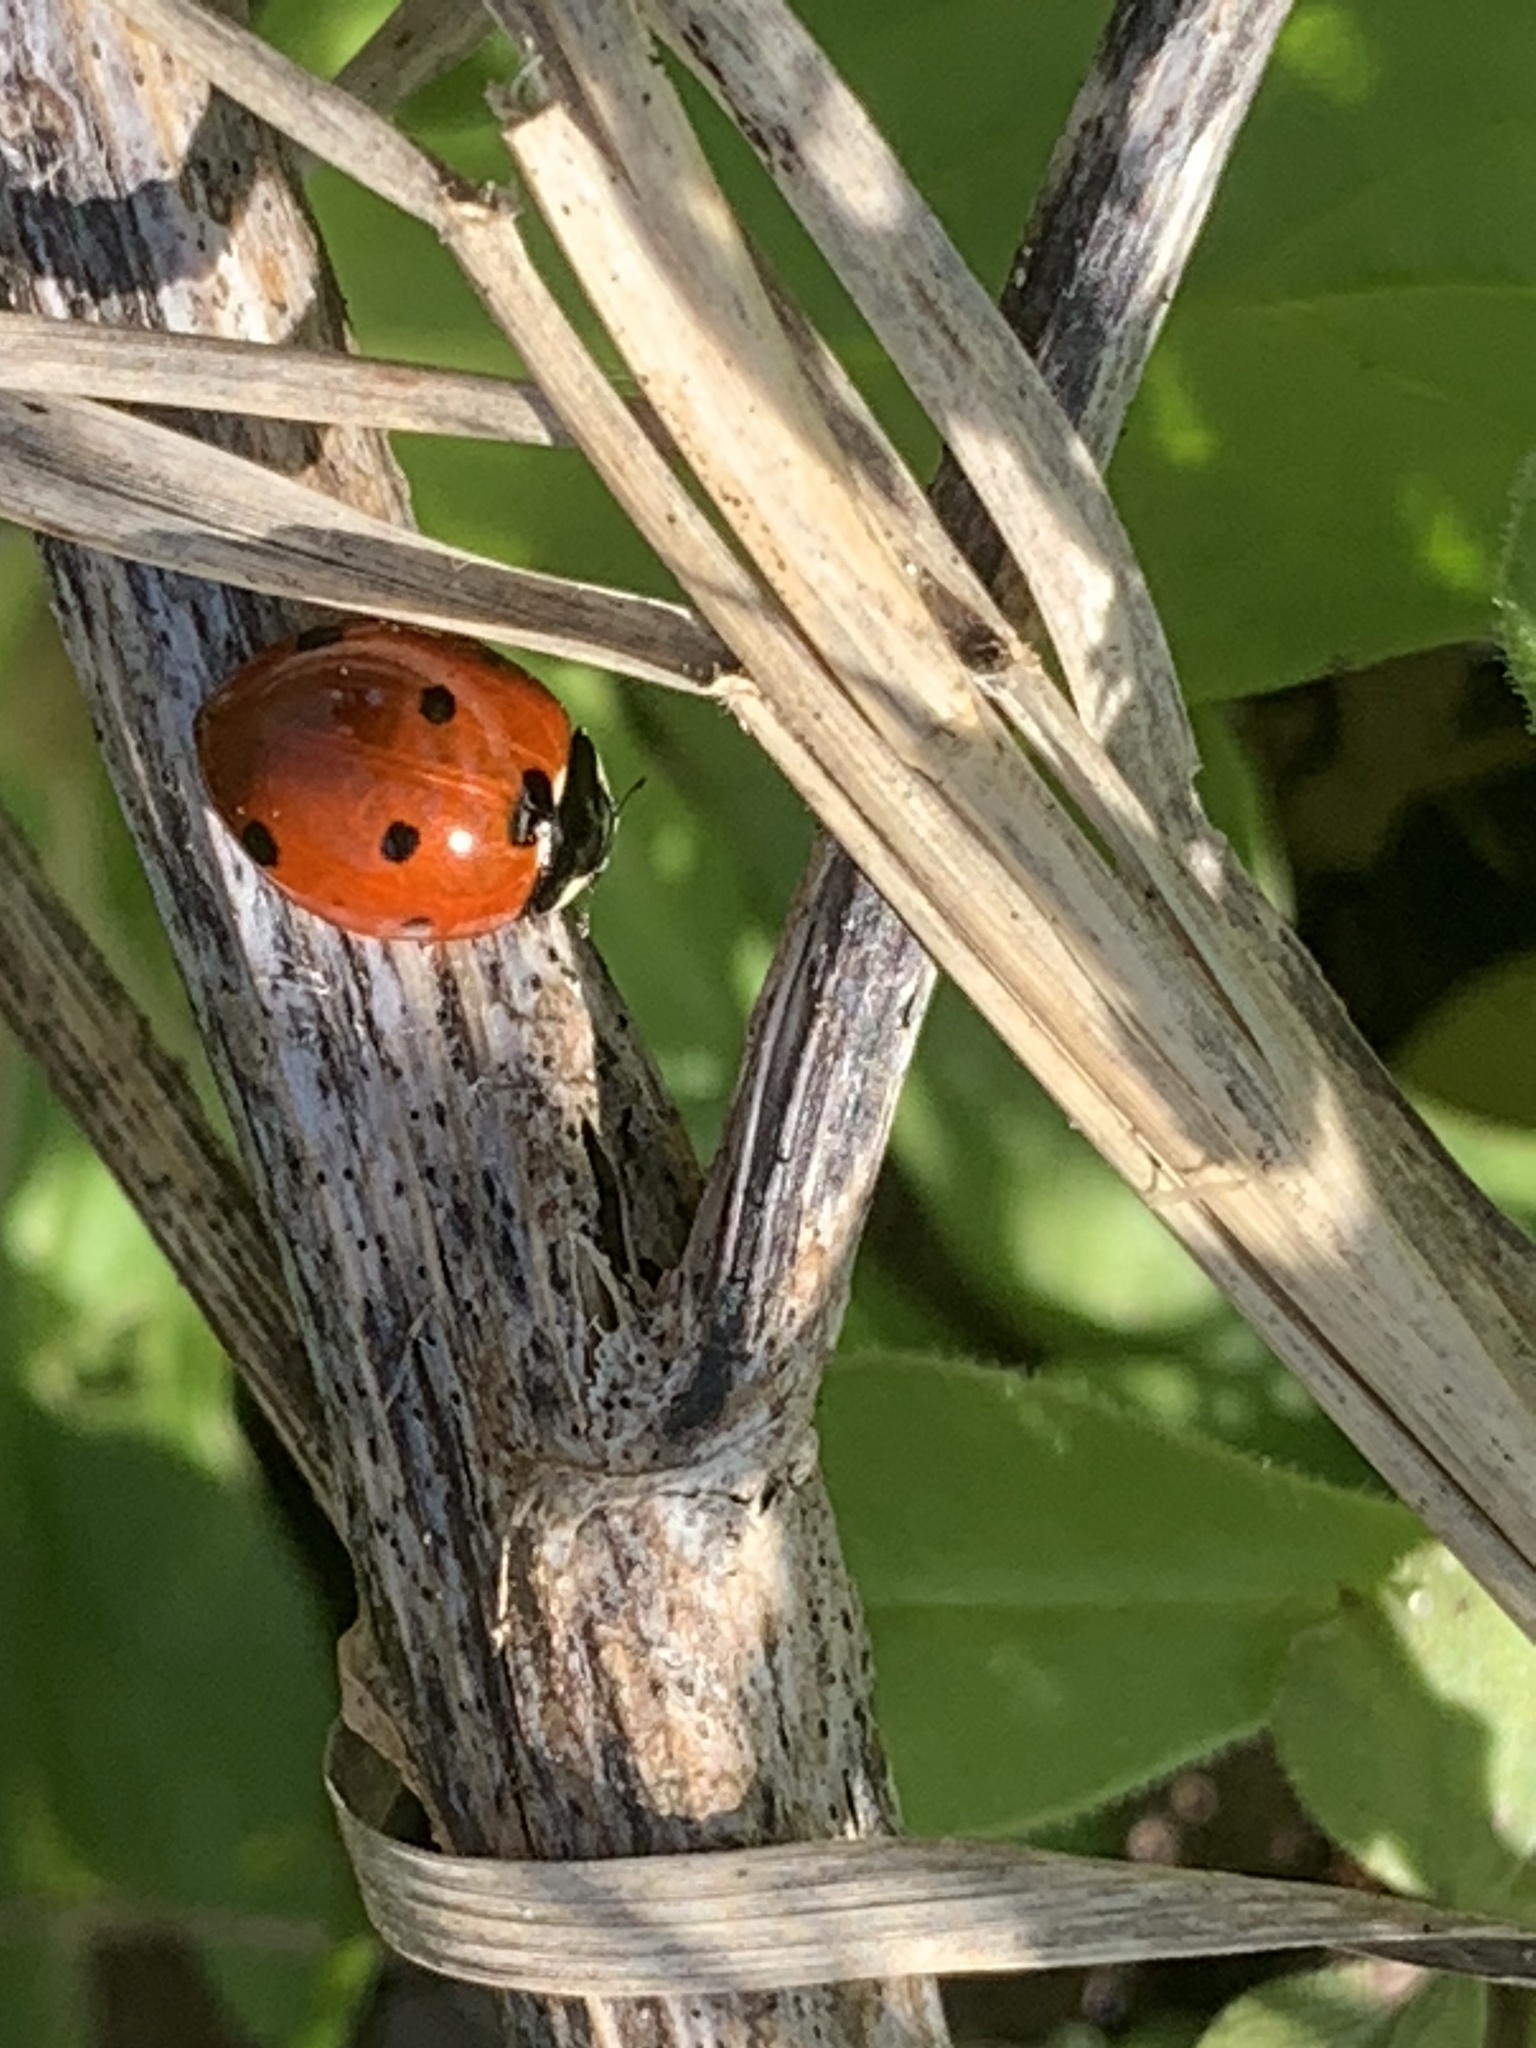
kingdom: Animalia
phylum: Arthropoda
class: Insecta
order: Coleoptera
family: Coccinellidae
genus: Coccinella
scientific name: Coccinella septempunctata
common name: Sevenspotted lady beetle
